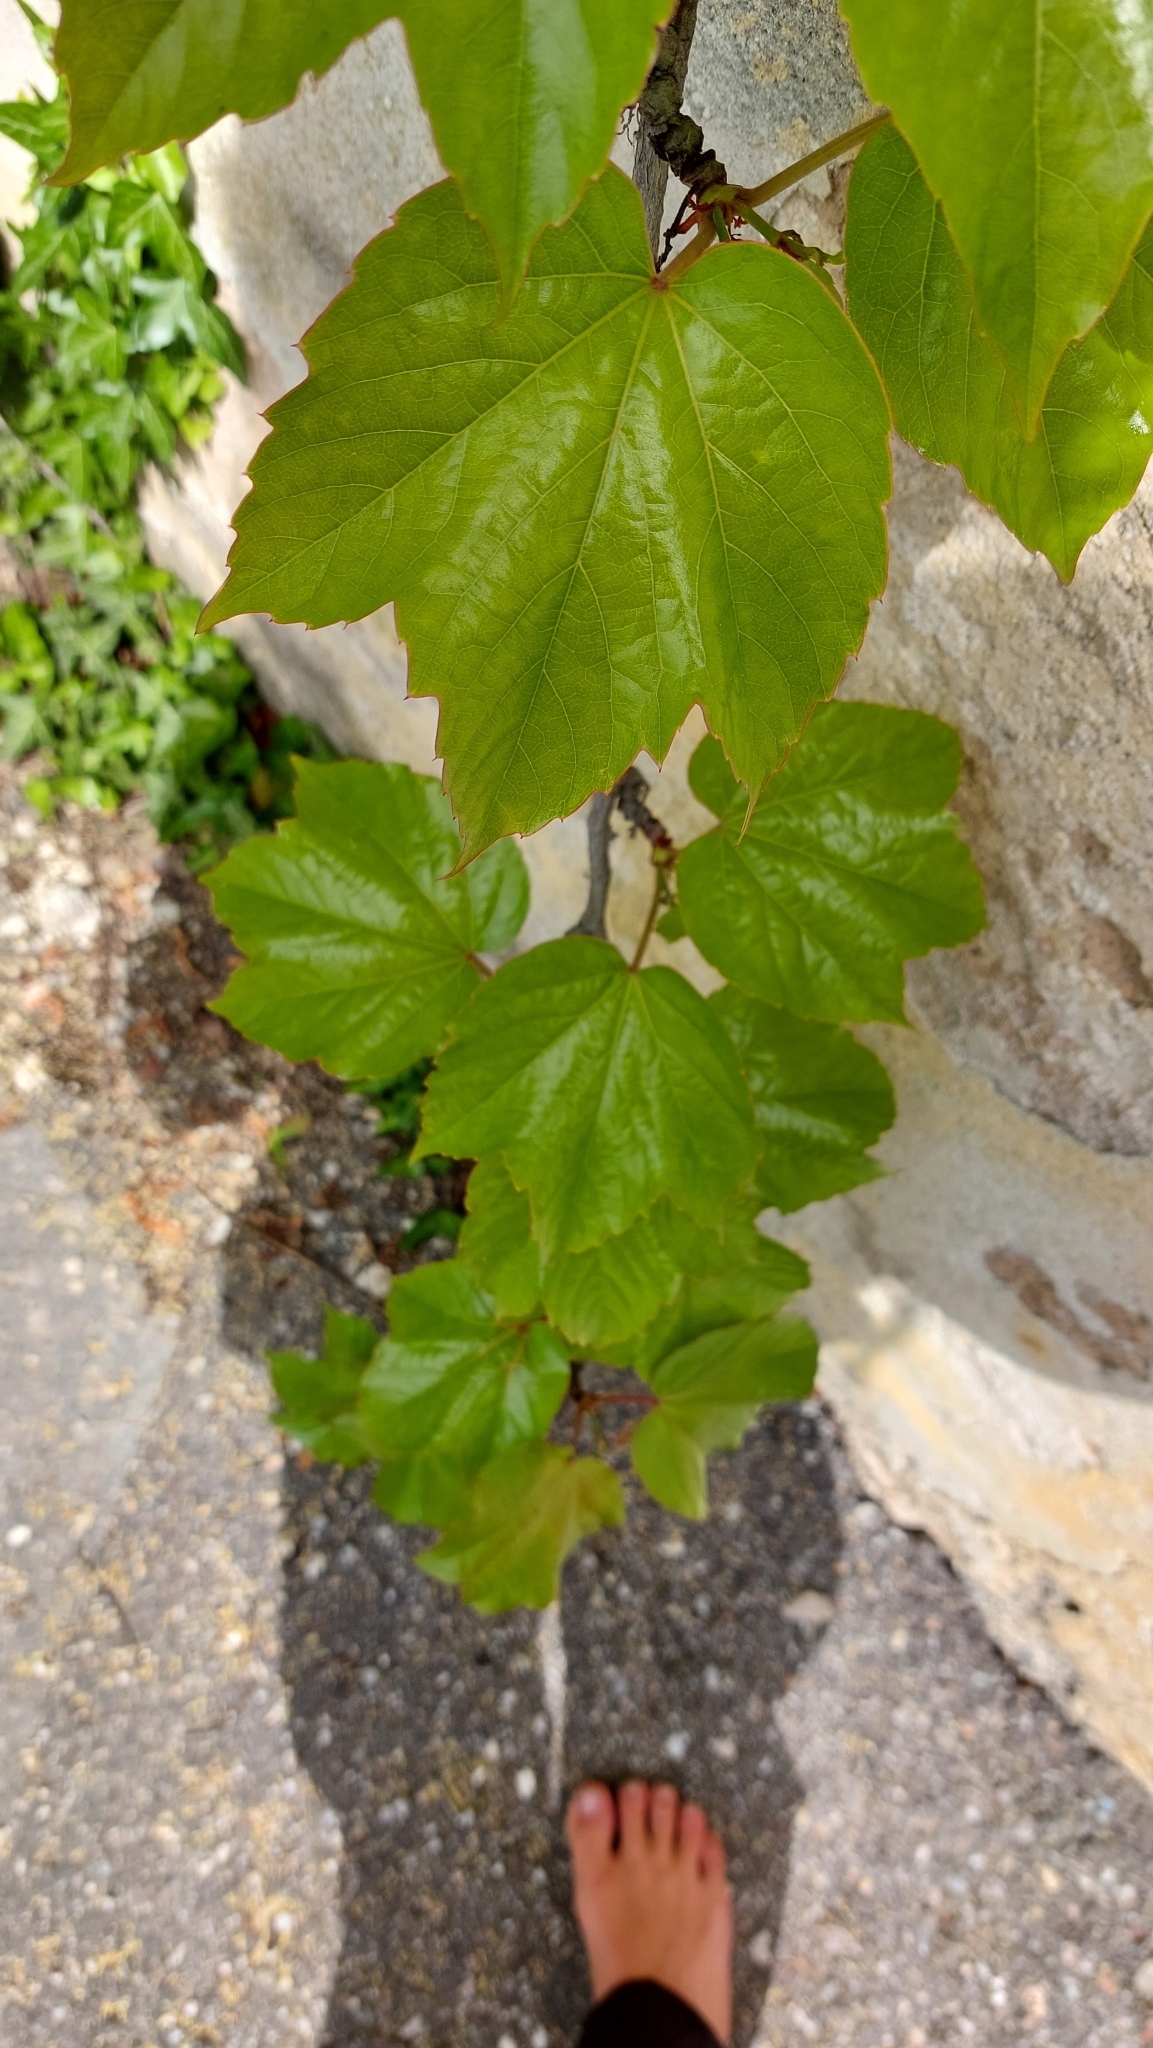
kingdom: Plantae
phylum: Tracheophyta
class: Magnoliopsida
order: Vitales
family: Vitaceae
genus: Parthenocissus
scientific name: Parthenocissus tricuspidata
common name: Boston ivy
